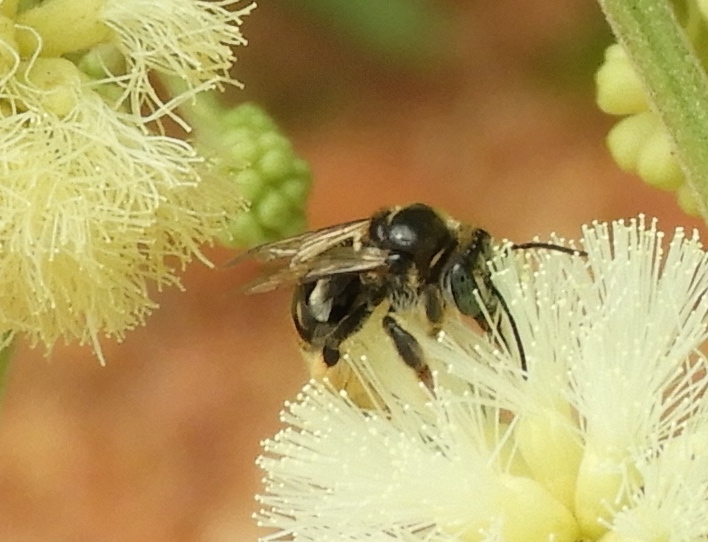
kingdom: Animalia
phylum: Arthropoda
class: Insecta
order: Hymenoptera
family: Apidae
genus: Apidae
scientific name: Apidae
